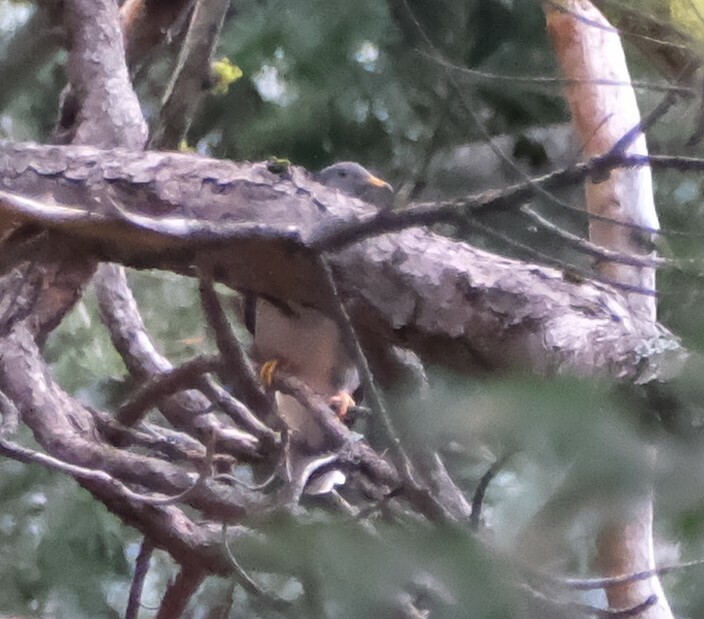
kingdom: Animalia
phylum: Chordata
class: Aves
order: Columbiformes
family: Columbidae
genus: Patagioenas
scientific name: Patagioenas fasciata
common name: Band-tailed pigeon
